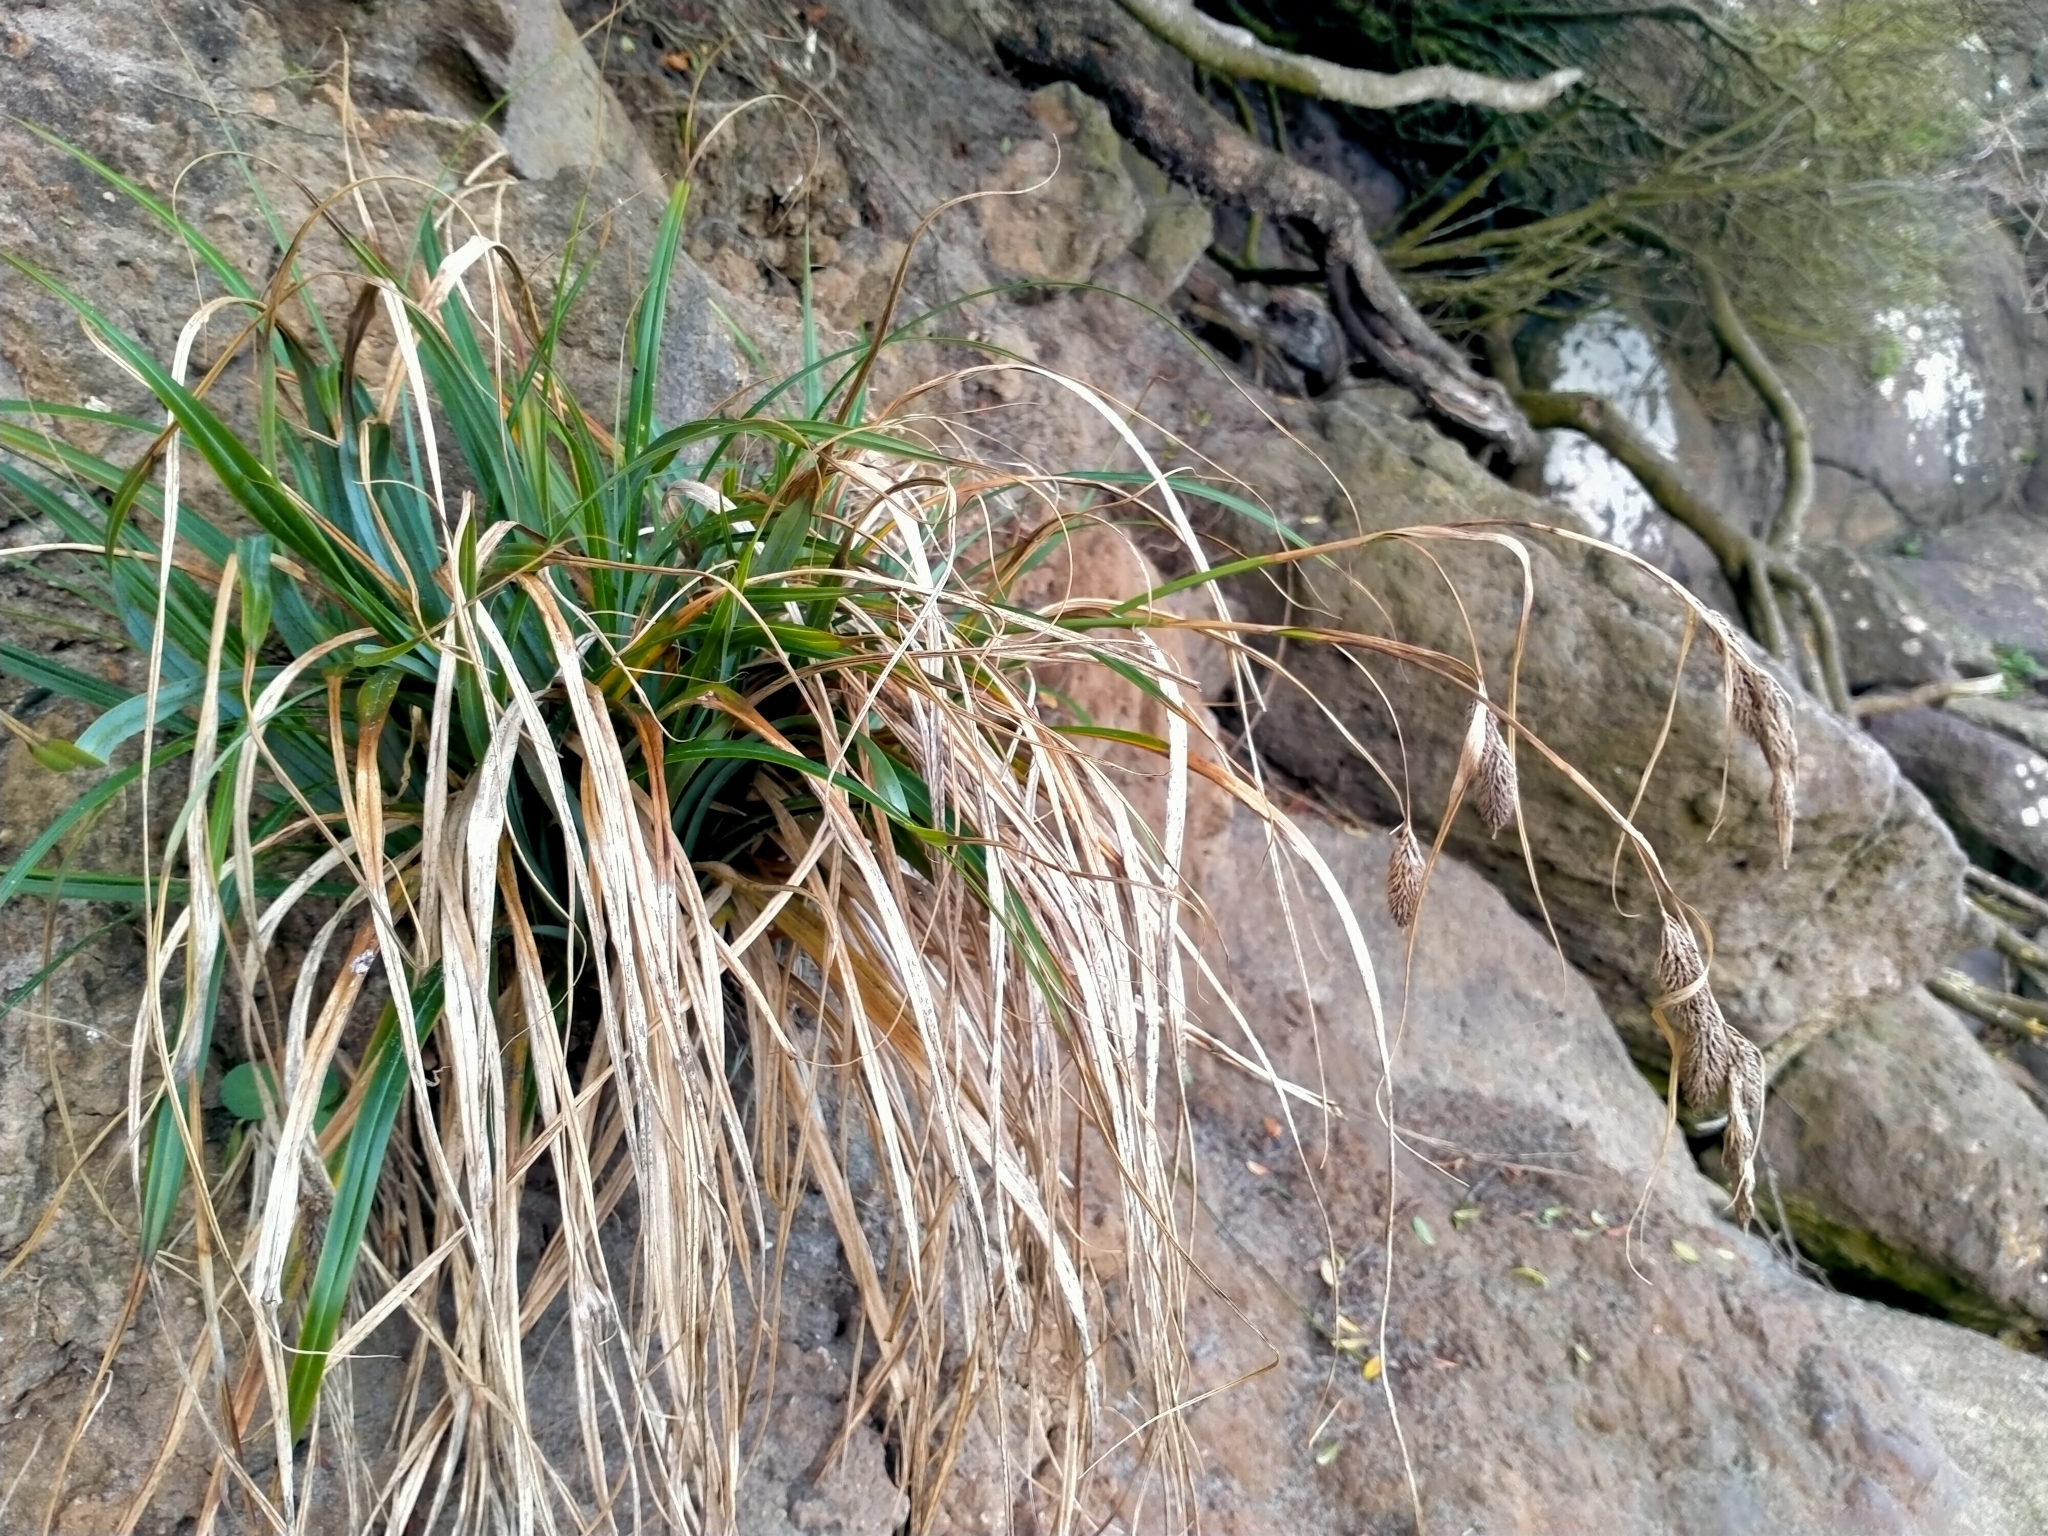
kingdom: Plantae
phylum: Tracheophyta
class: Liliopsida
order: Poales
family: Cyperaceae
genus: Carex
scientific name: Carex trifida
